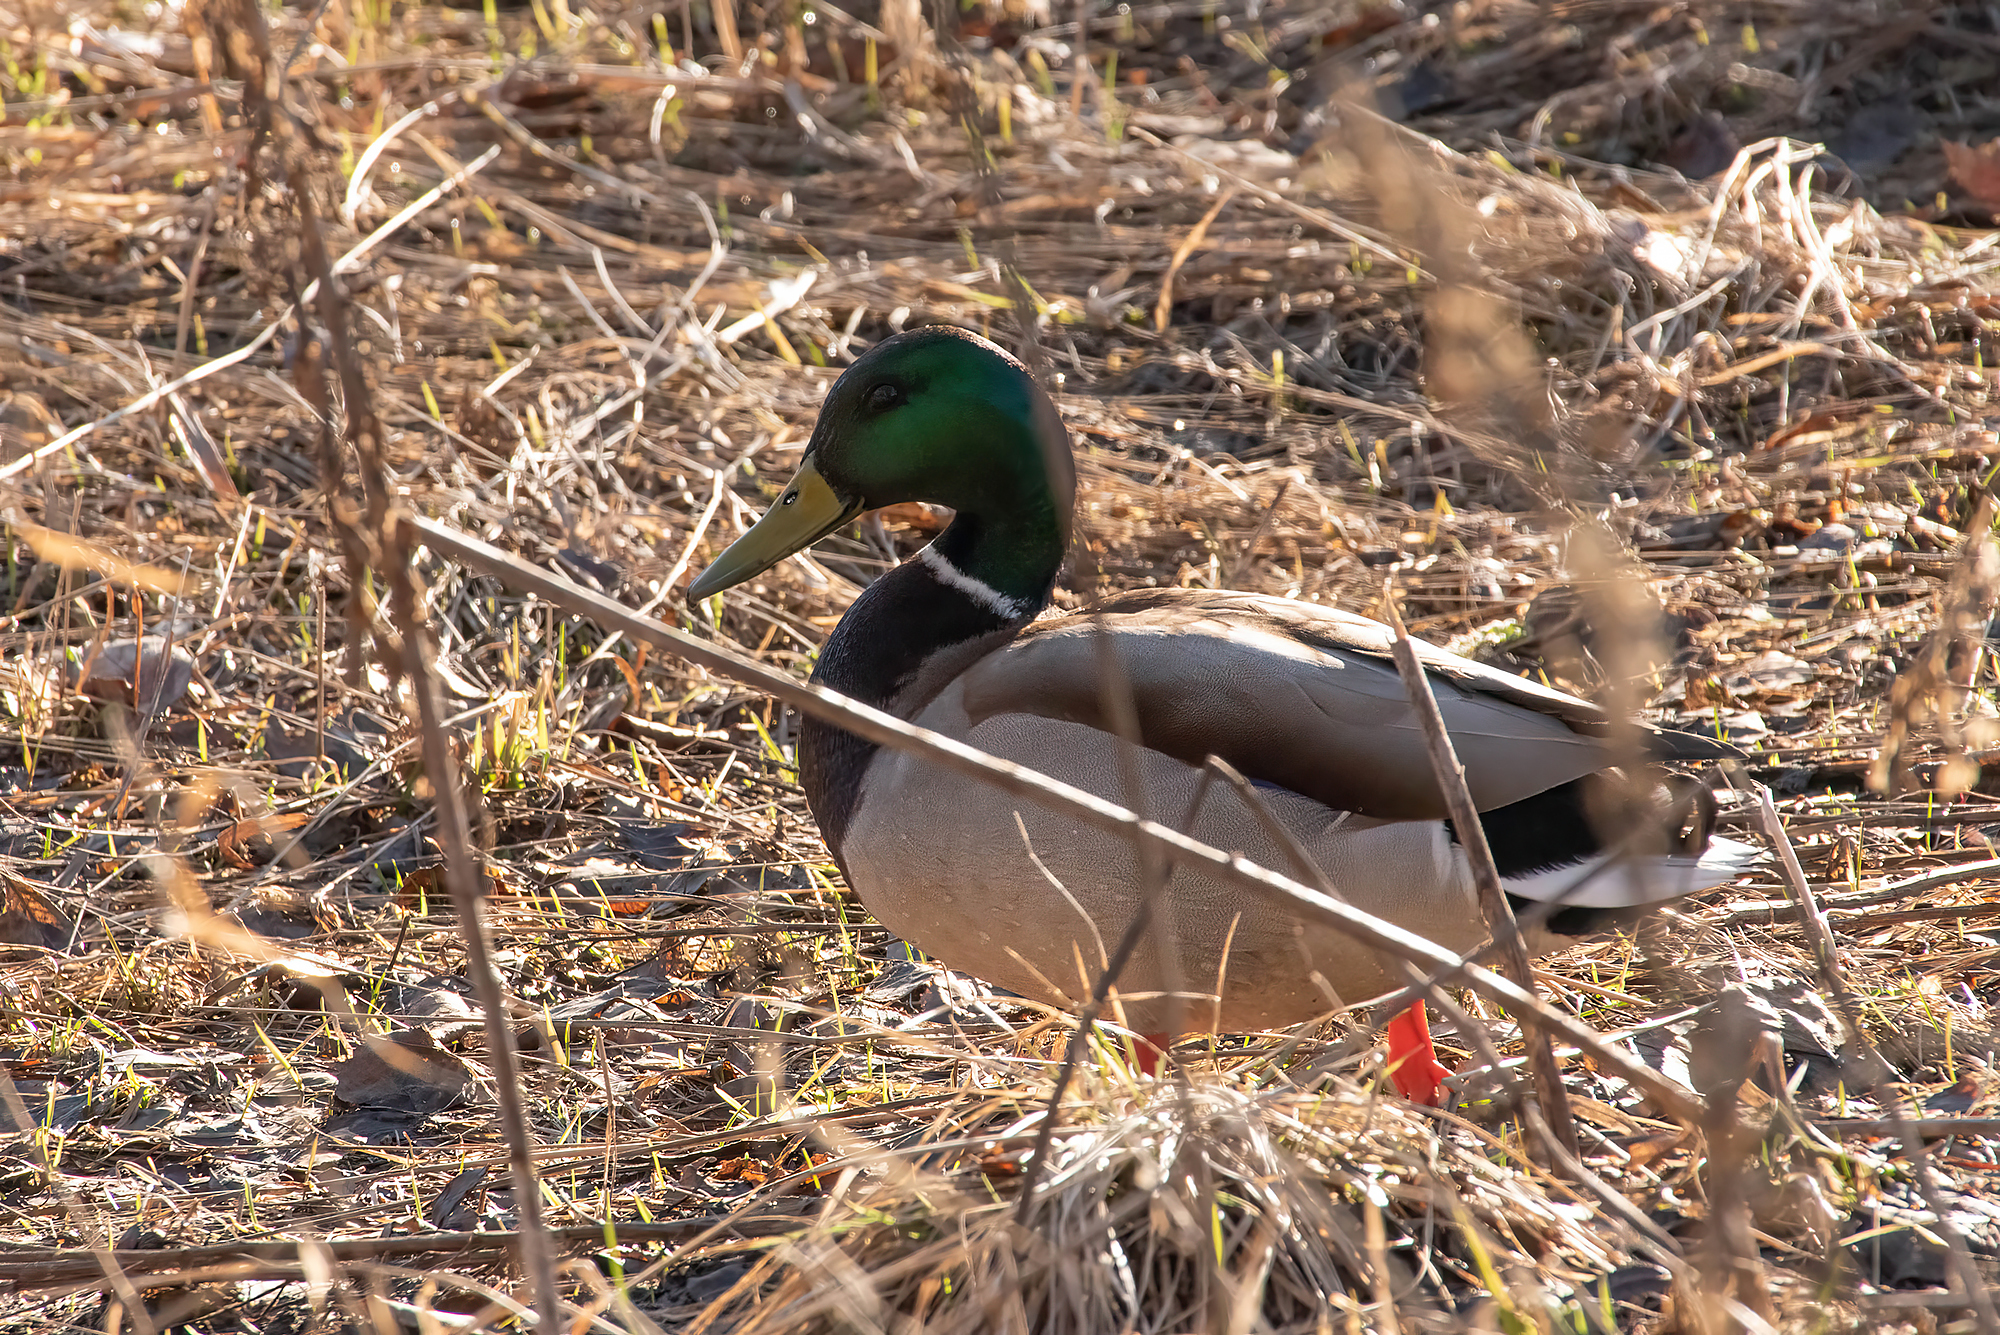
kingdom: Animalia
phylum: Chordata
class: Aves
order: Anseriformes
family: Anatidae
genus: Anas
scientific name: Anas platyrhynchos
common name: Mallard
